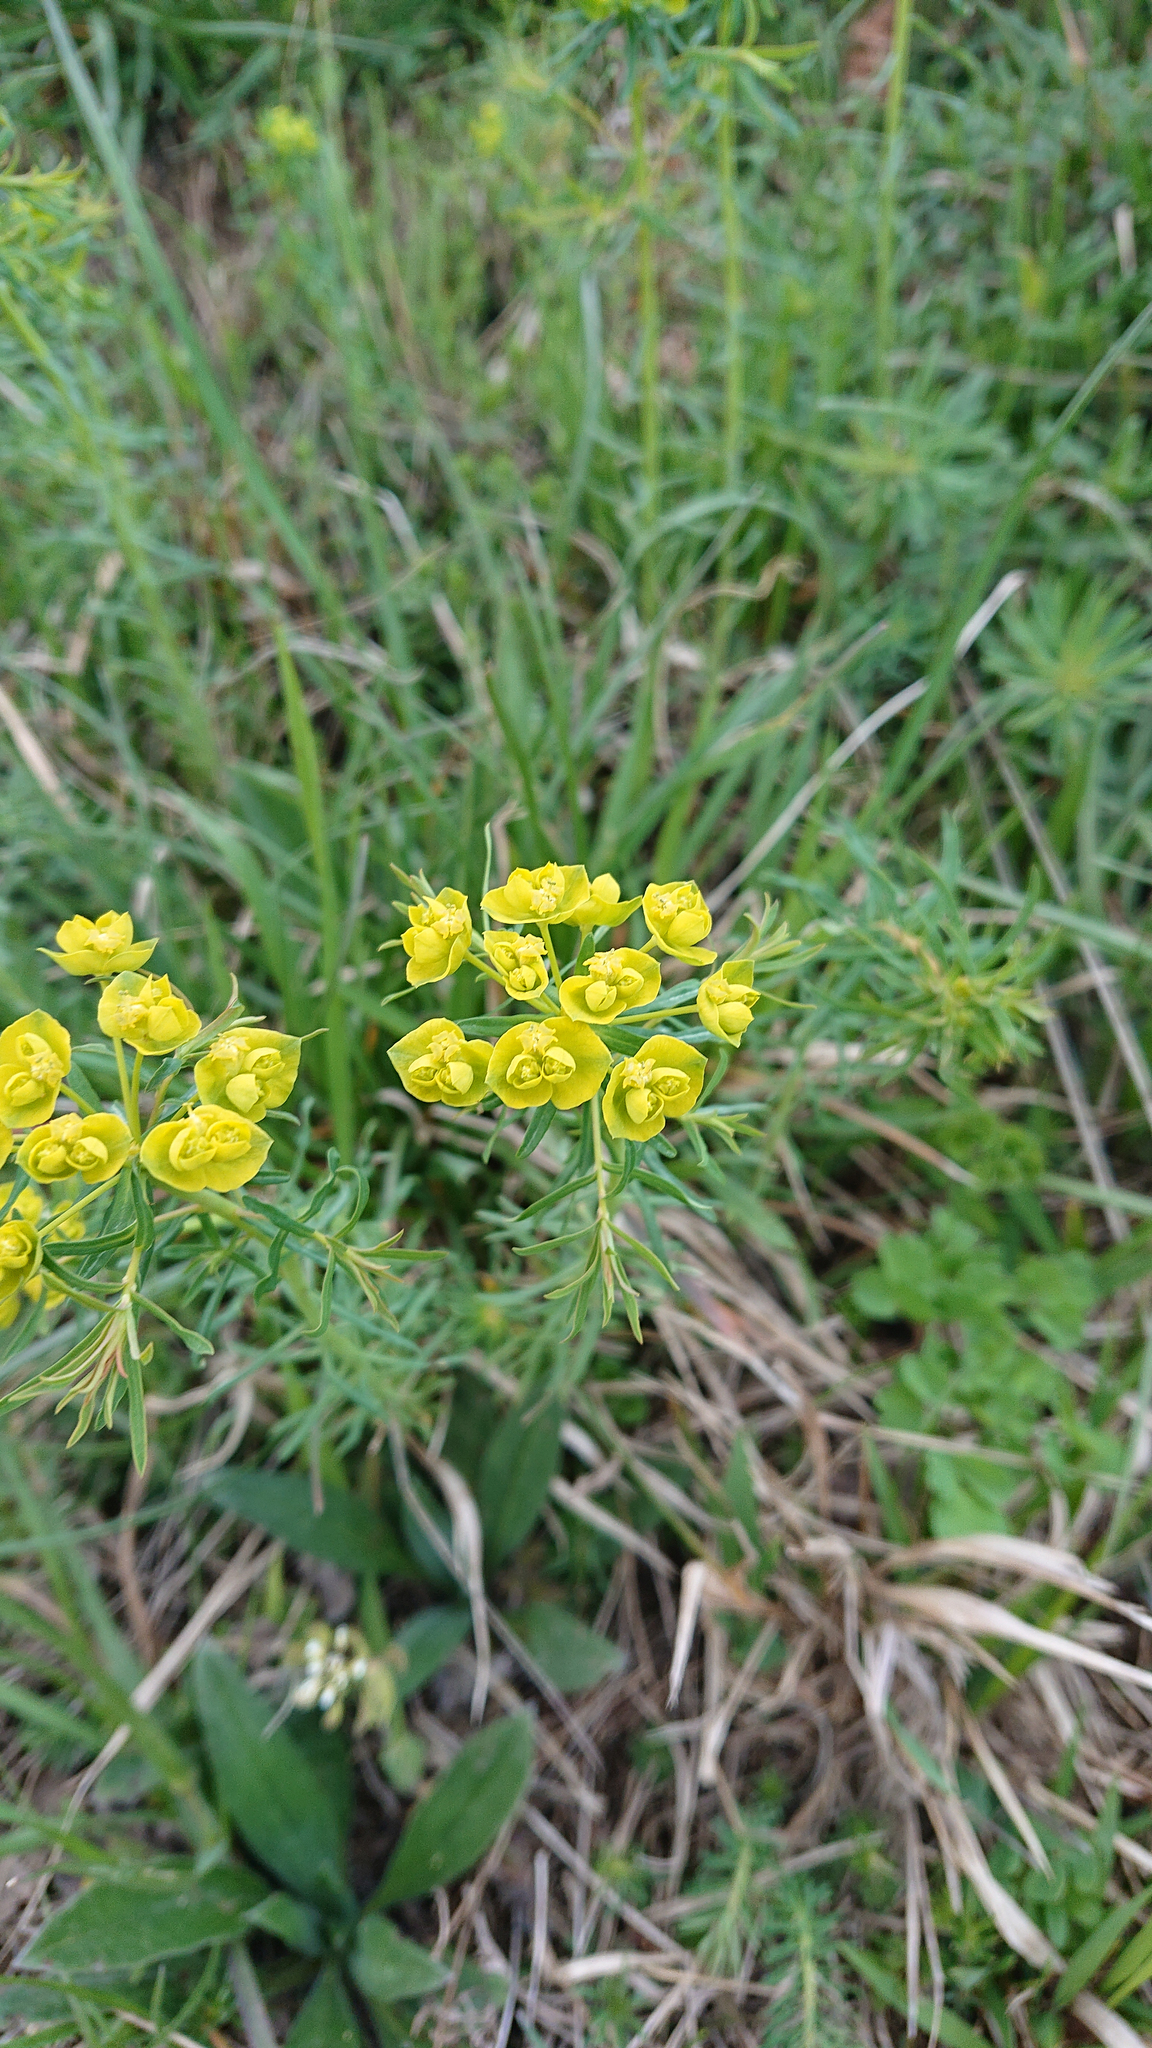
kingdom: Plantae
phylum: Tracheophyta
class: Magnoliopsida
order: Malpighiales
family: Euphorbiaceae
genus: Euphorbia
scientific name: Euphorbia cyparissias
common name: Cypress spurge
